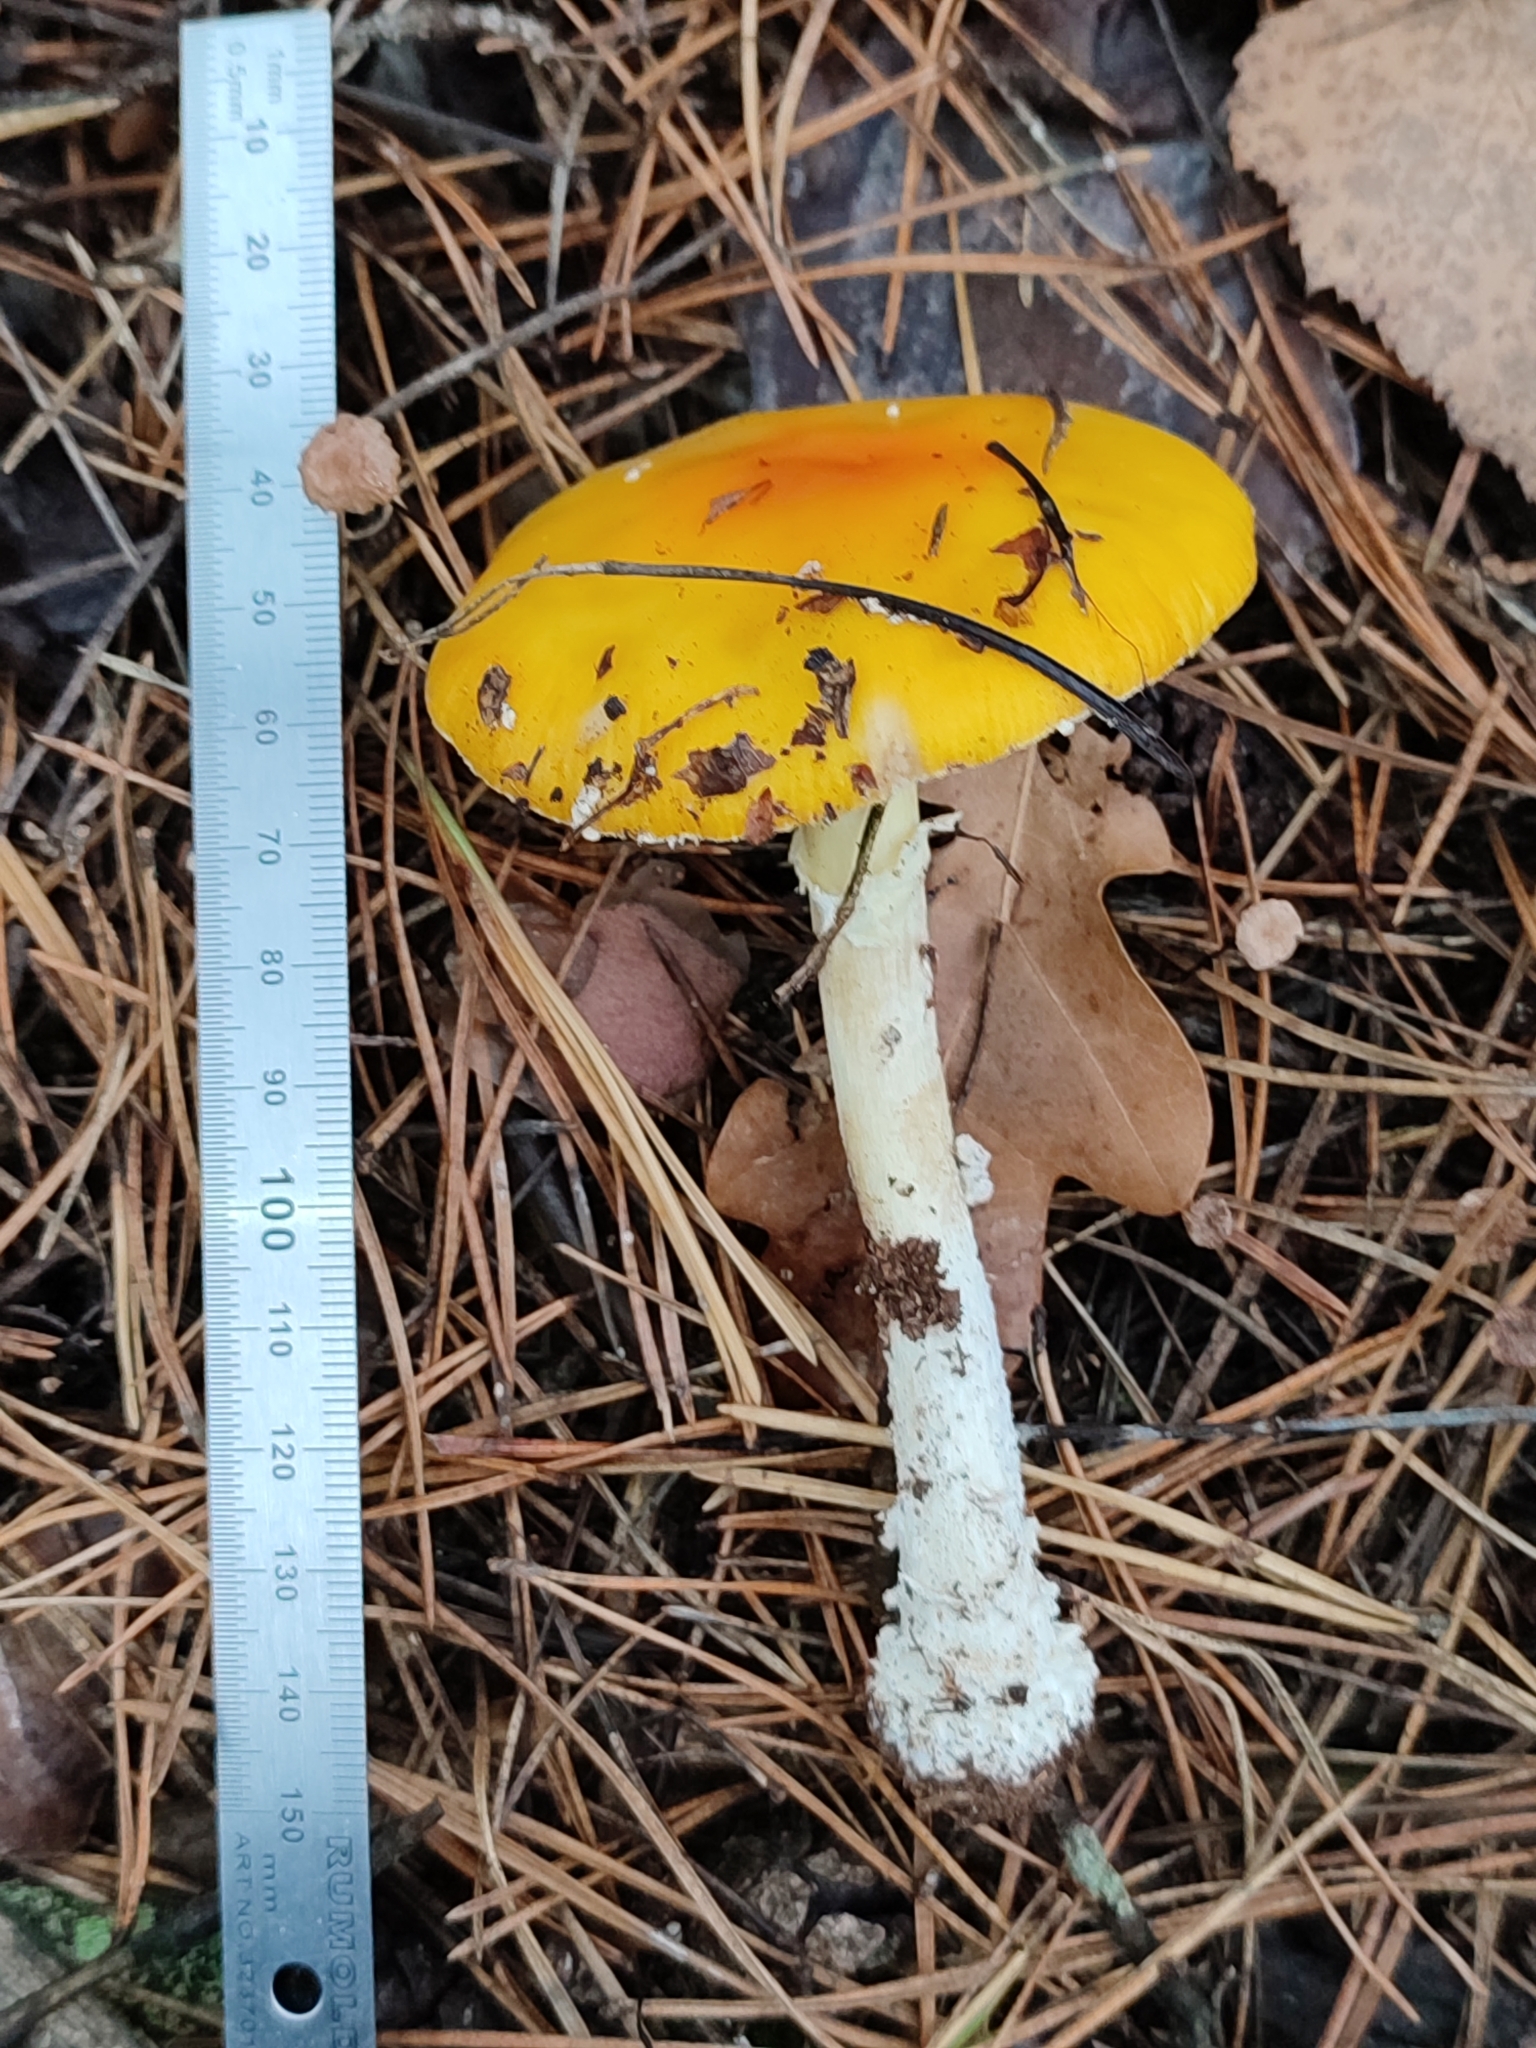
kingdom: Fungi
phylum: Basidiomycota
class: Agaricomycetes
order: Agaricales
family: Amanitaceae
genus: Amanita
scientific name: Amanita muscaria
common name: Fly agaric
